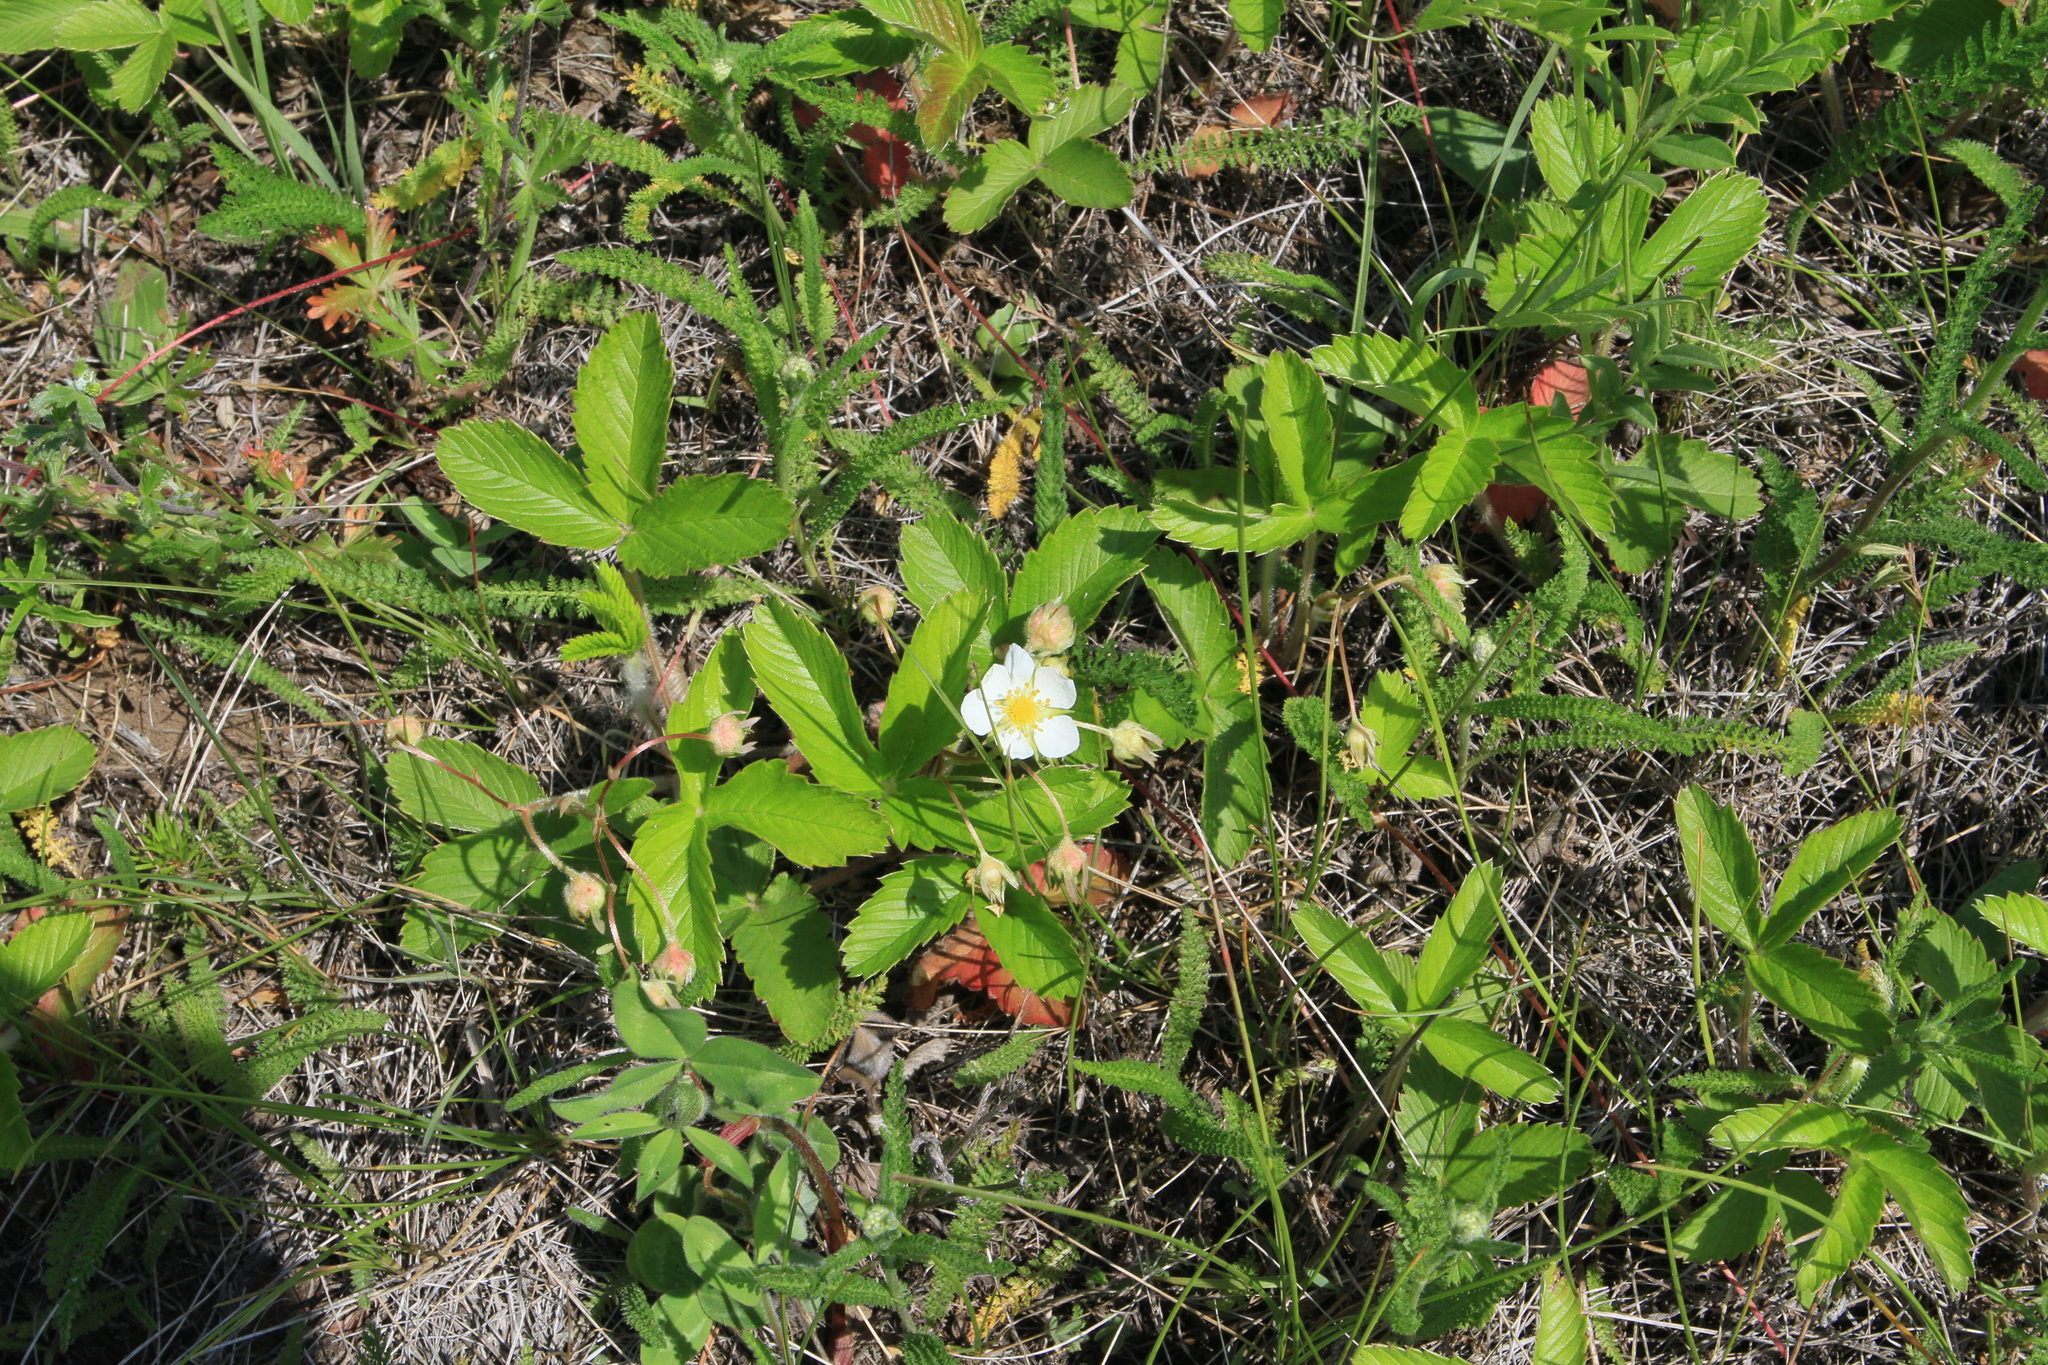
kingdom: Plantae
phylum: Tracheophyta
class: Magnoliopsida
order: Rosales
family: Rosaceae
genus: Fragaria
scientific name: Fragaria viridis
